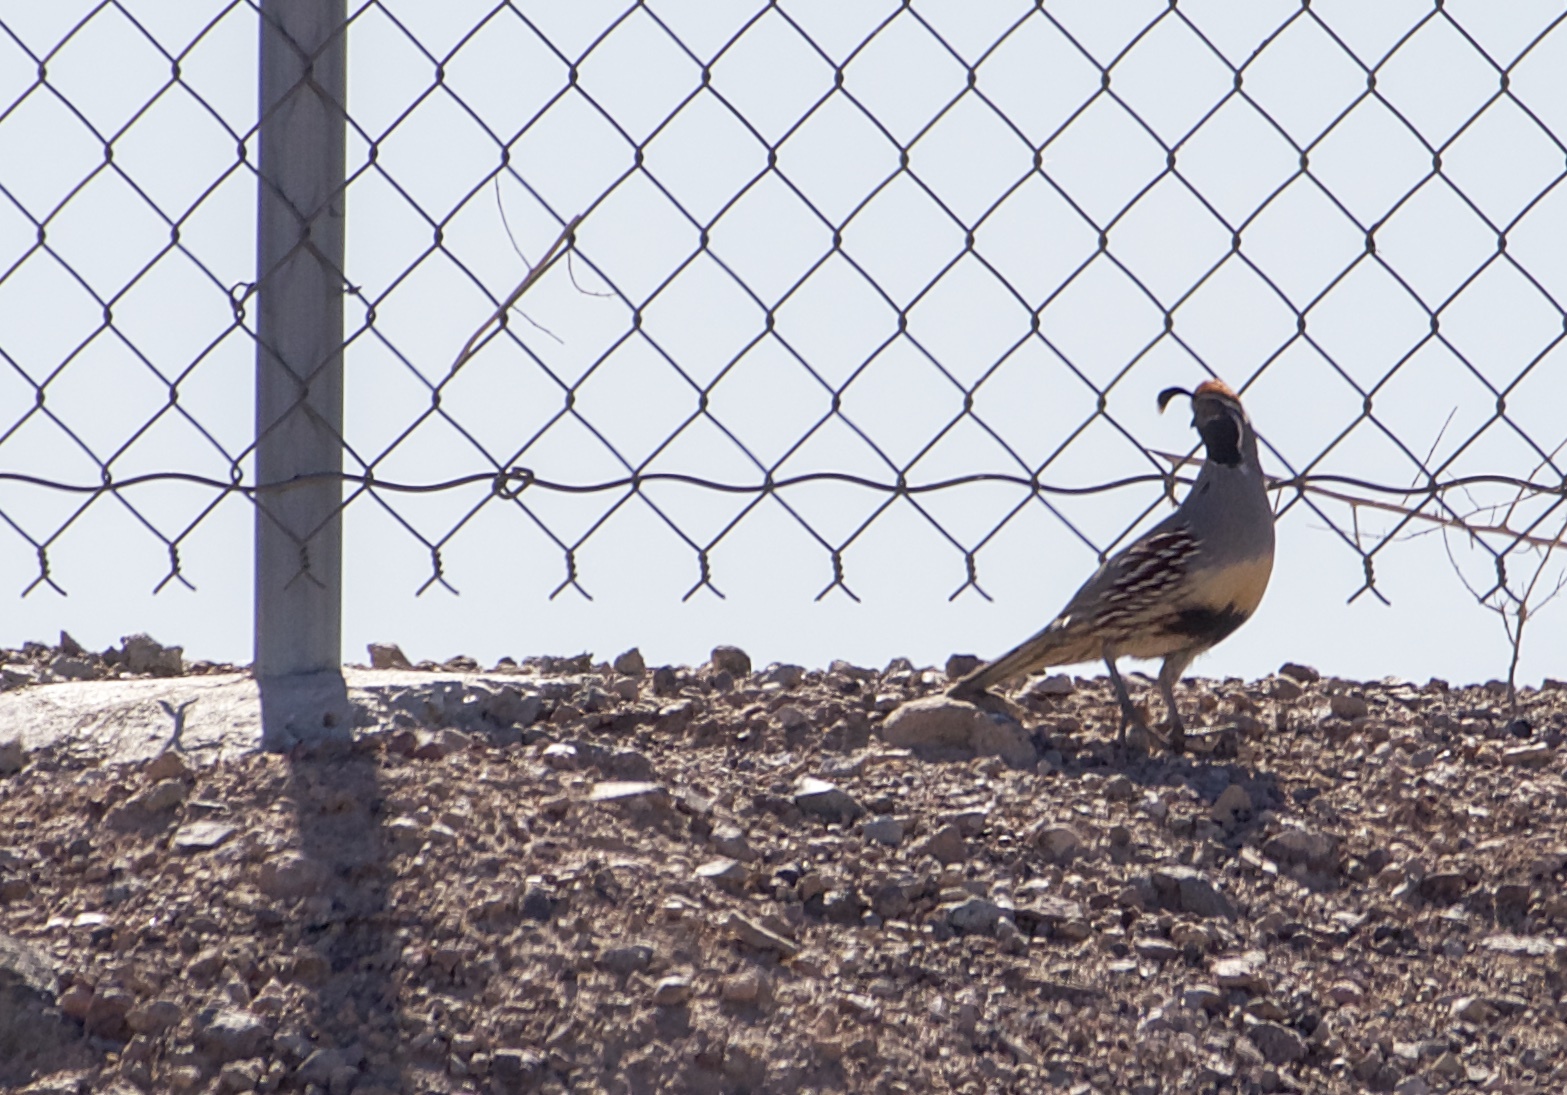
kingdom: Animalia
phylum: Chordata
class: Aves
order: Galliformes
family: Odontophoridae
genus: Callipepla
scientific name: Callipepla gambelii
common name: Gambel's quail
